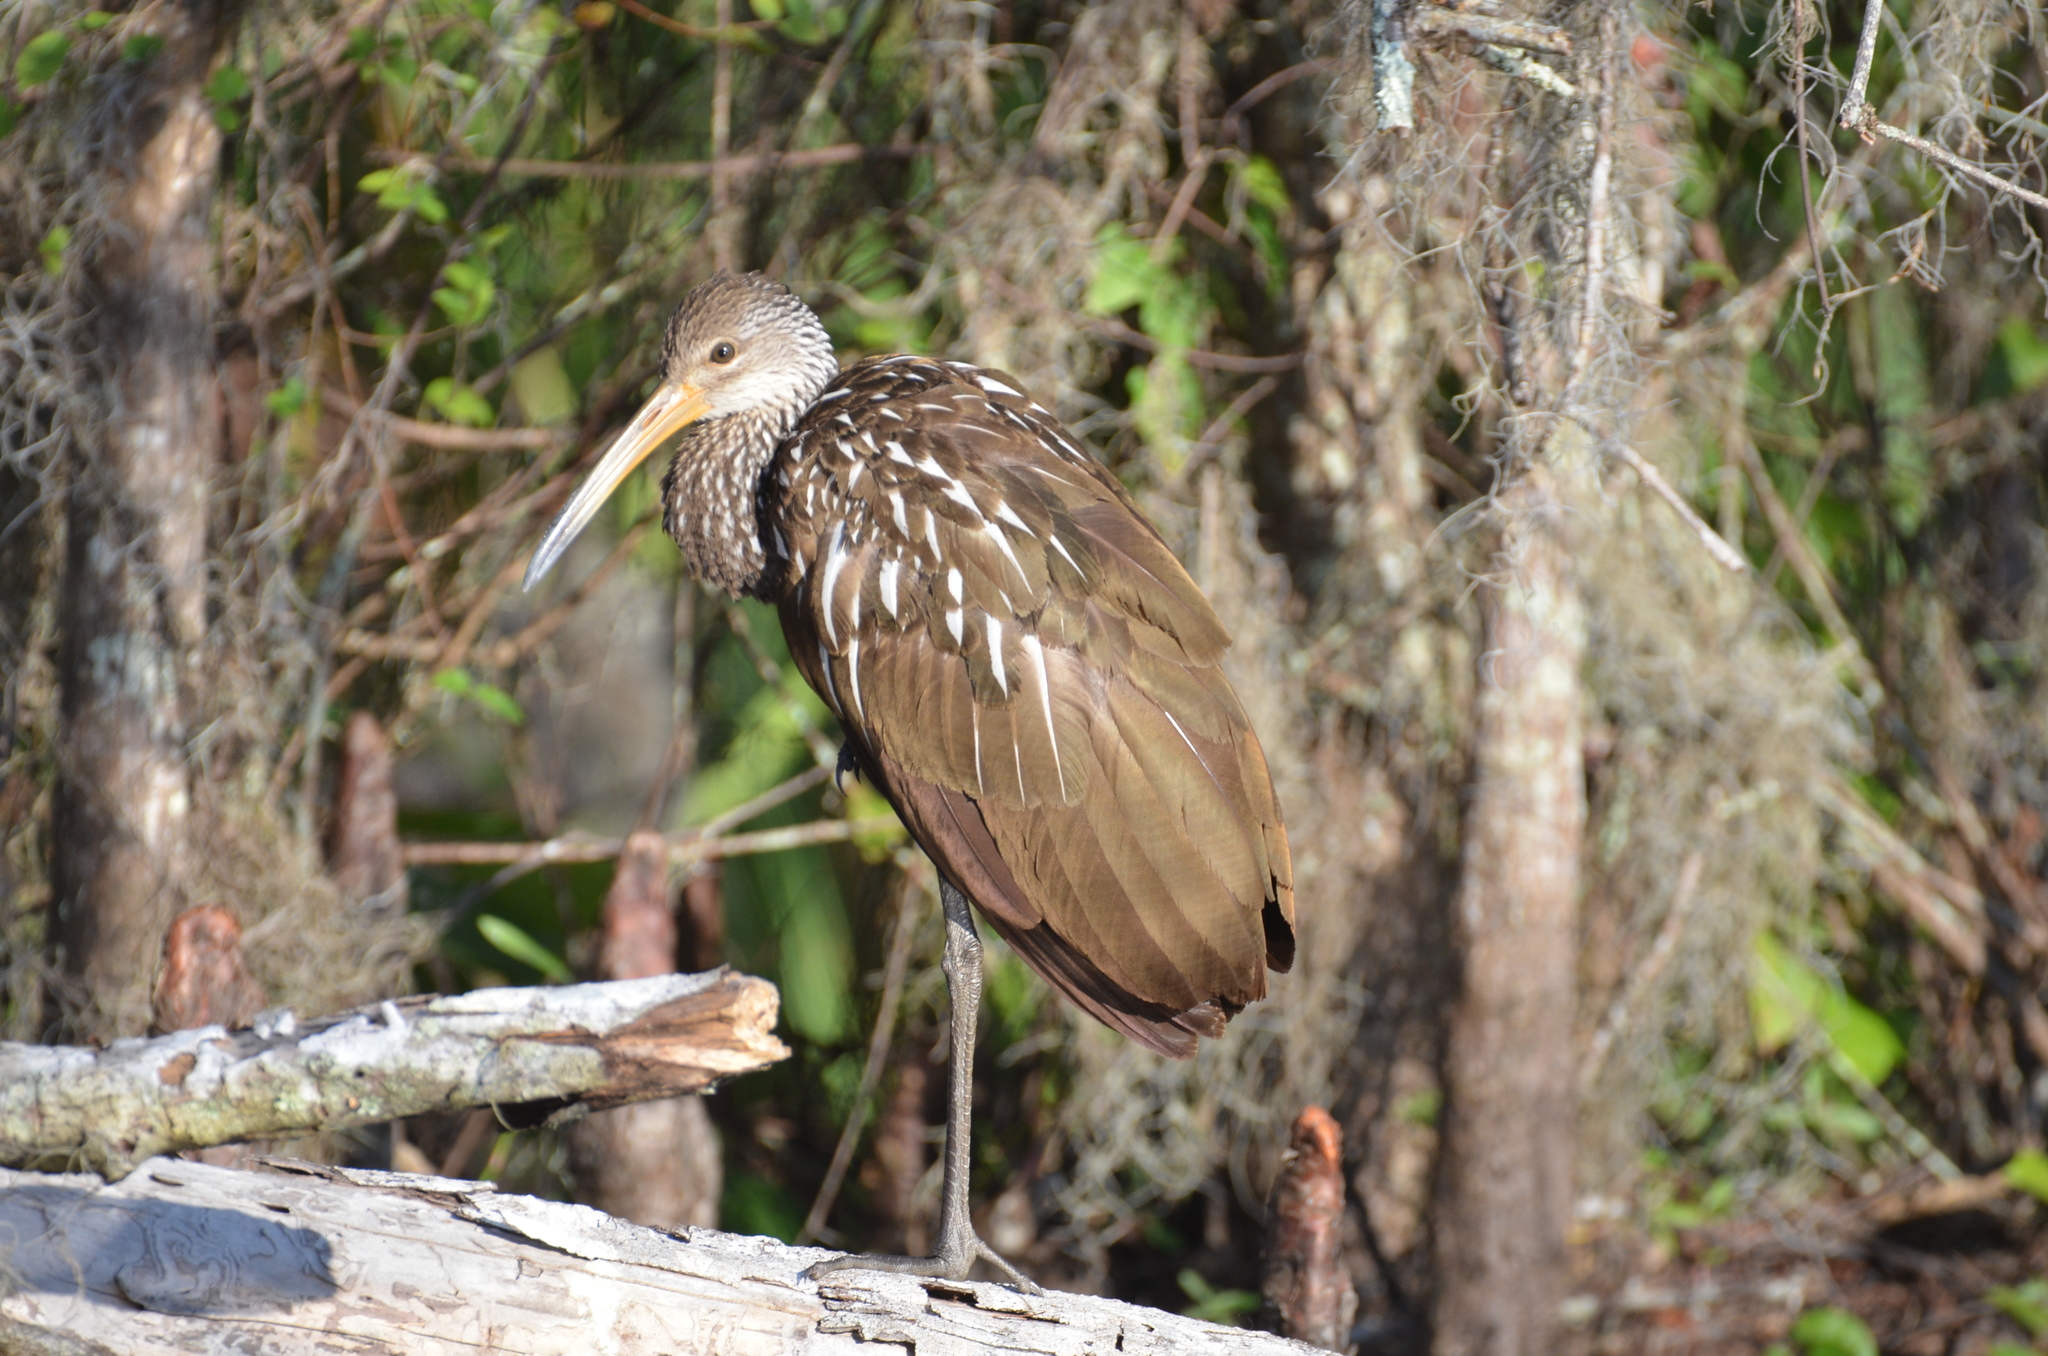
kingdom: Animalia
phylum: Chordata
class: Aves
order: Gruiformes
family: Aramidae
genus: Aramus
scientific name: Aramus guarauna
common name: Limpkin
